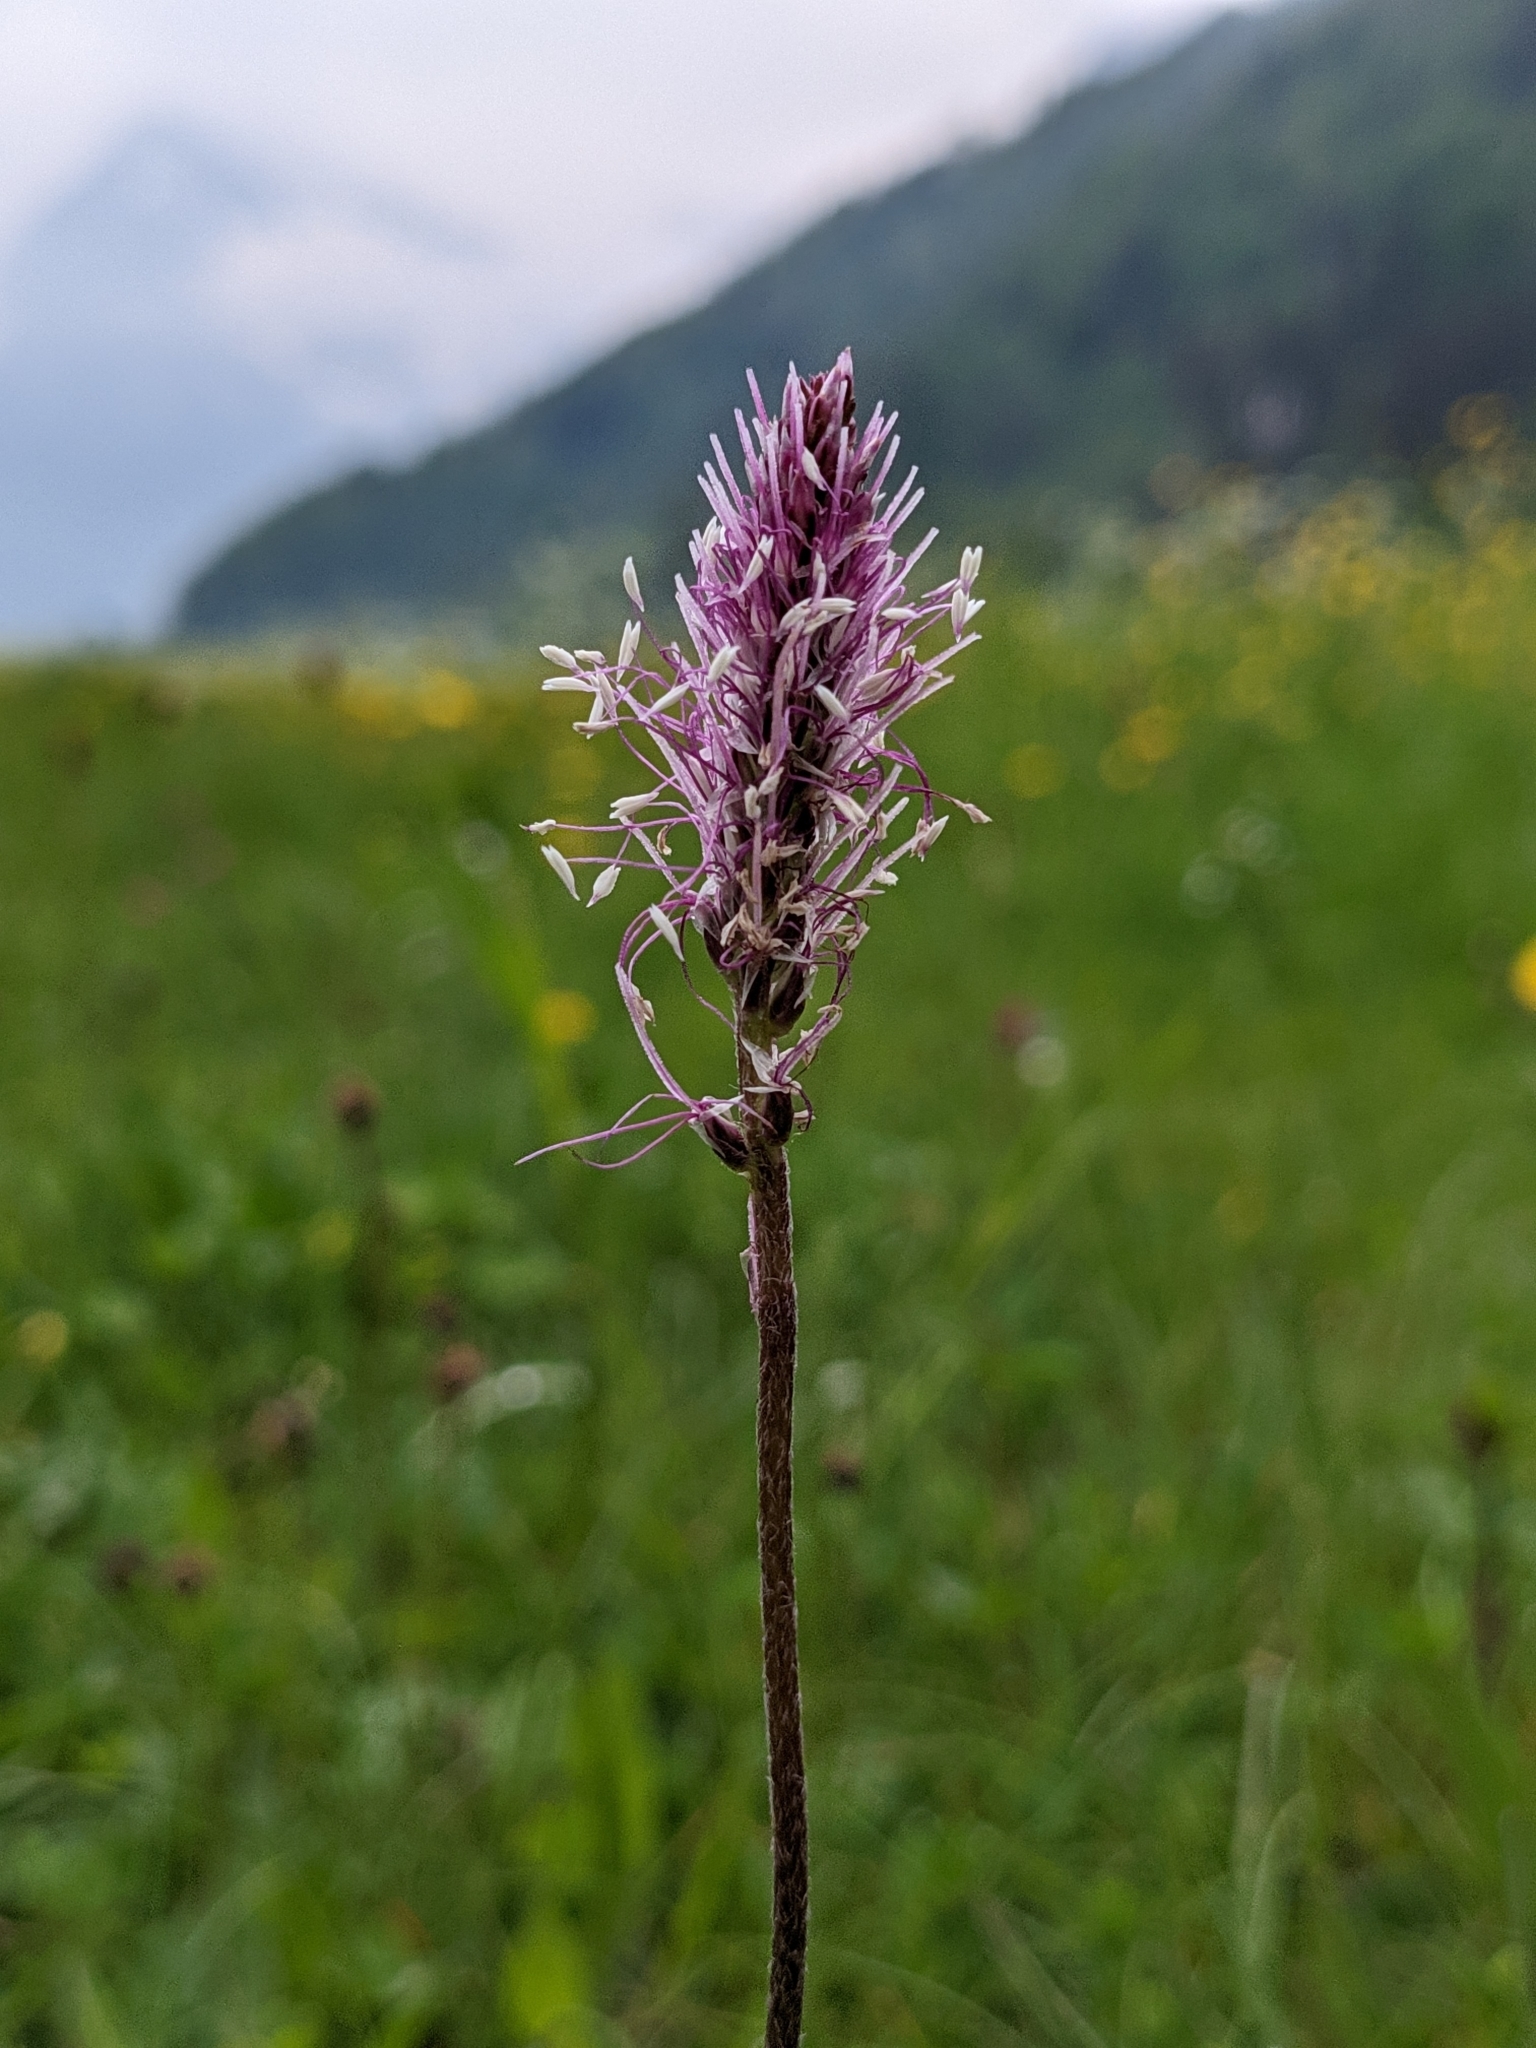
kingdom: Plantae
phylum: Tracheophyta
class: Magnoliopsida
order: Lamiales
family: Plantaginaceae
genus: Plantago
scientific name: Plantago media
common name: Hoary plantain
